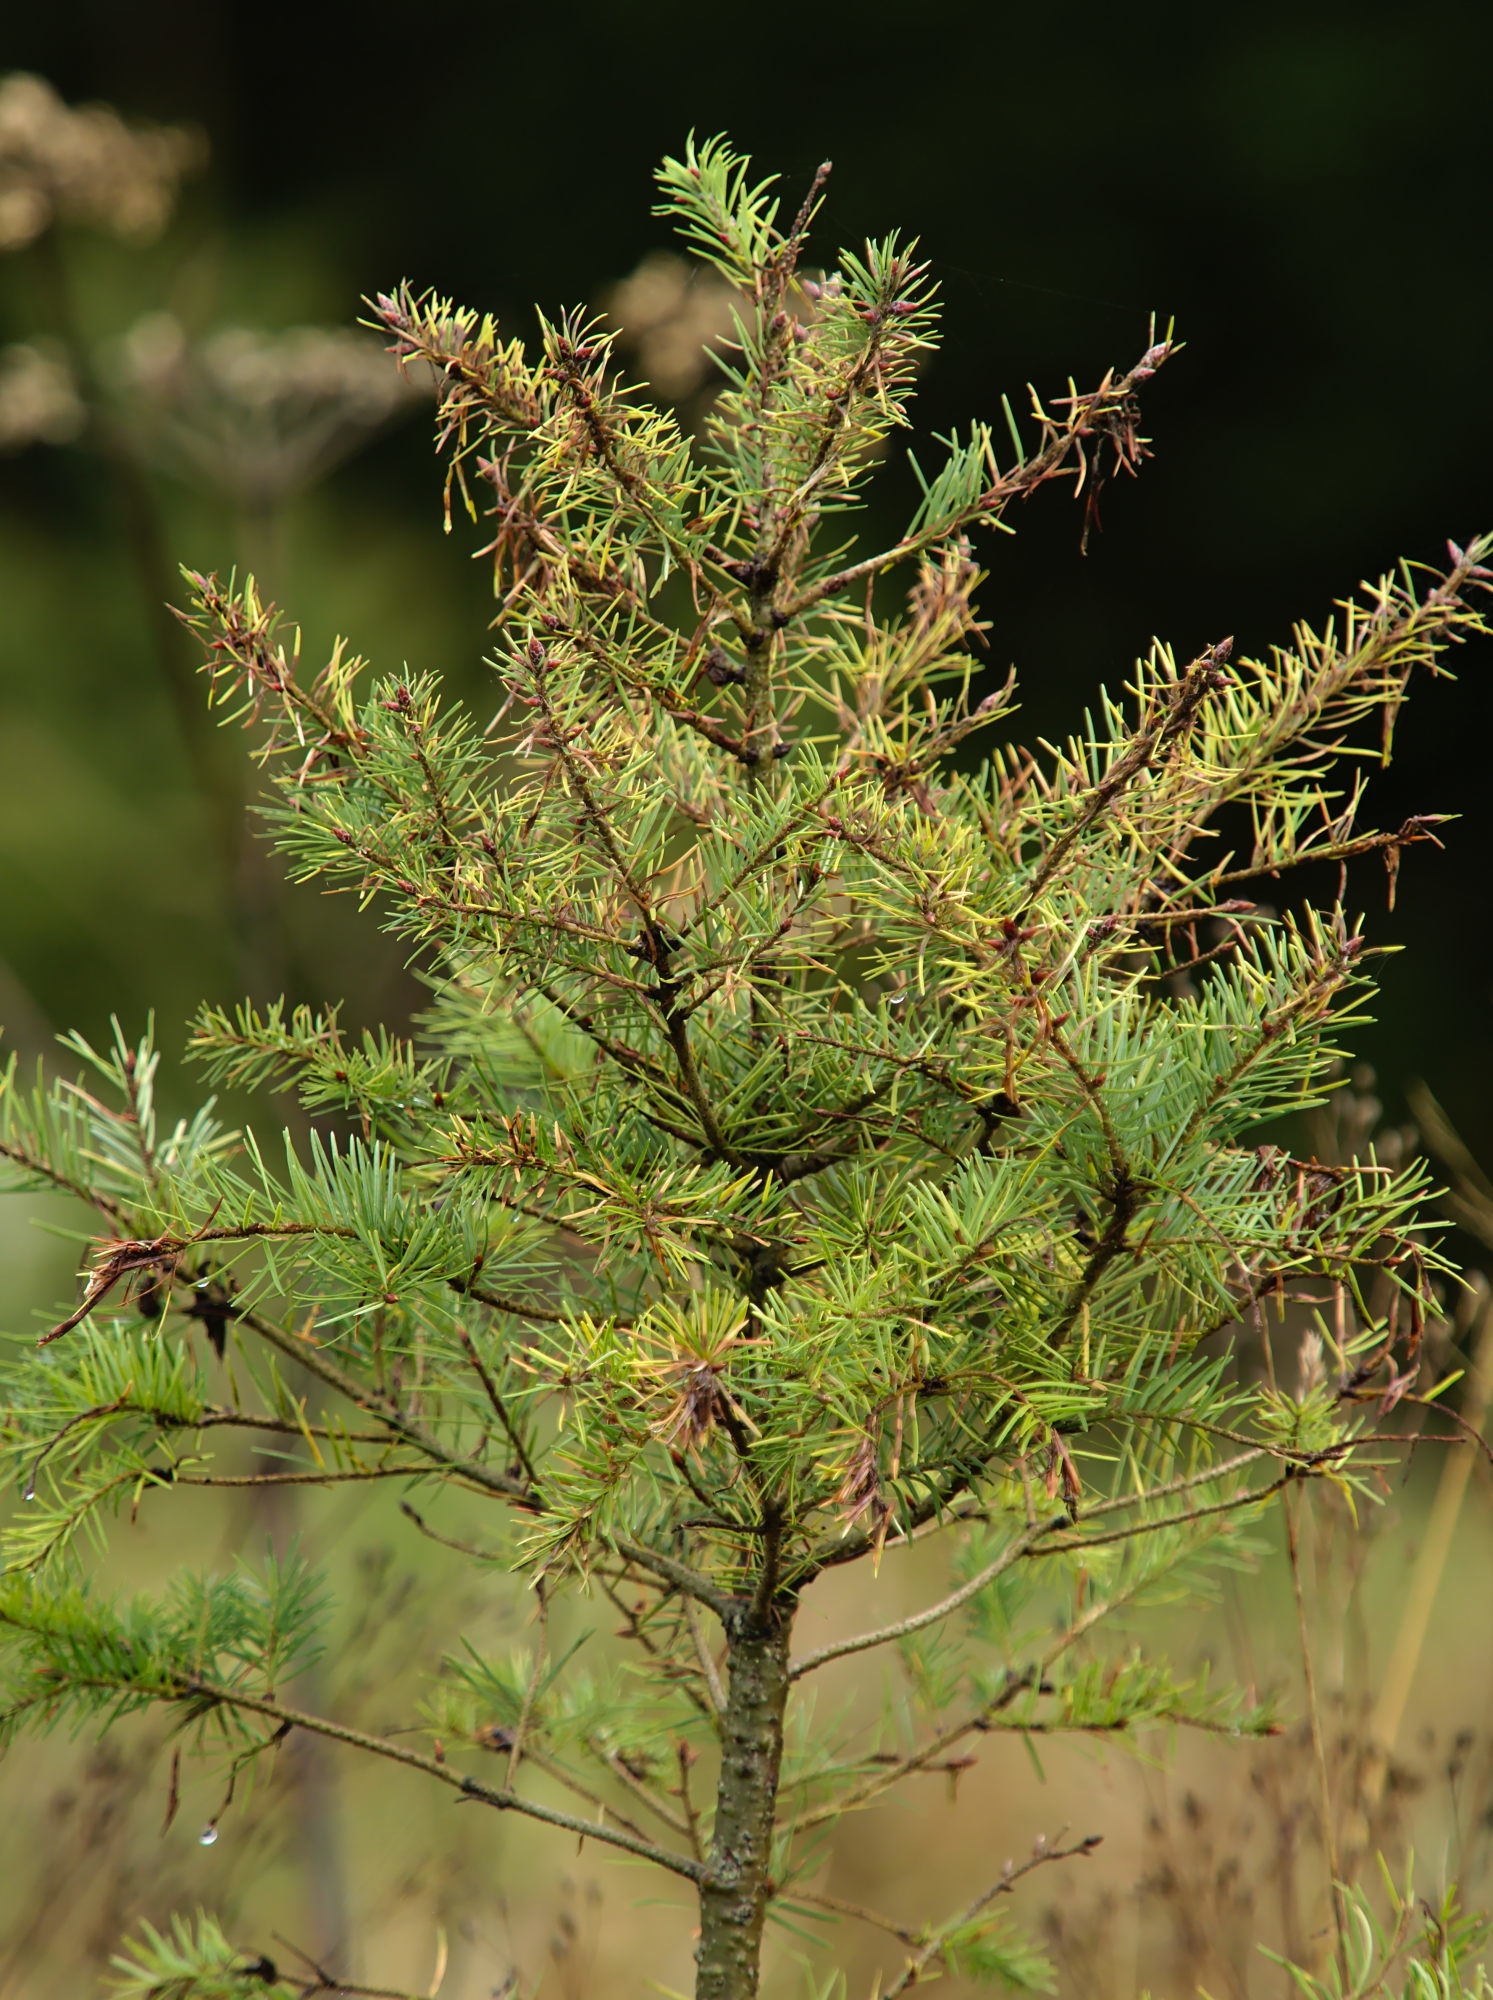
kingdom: Animalia
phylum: Arthropoda
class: Insecta
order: Diptera
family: Cecidomyiidae
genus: Contarinia
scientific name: Contarinia pseudotsugae
